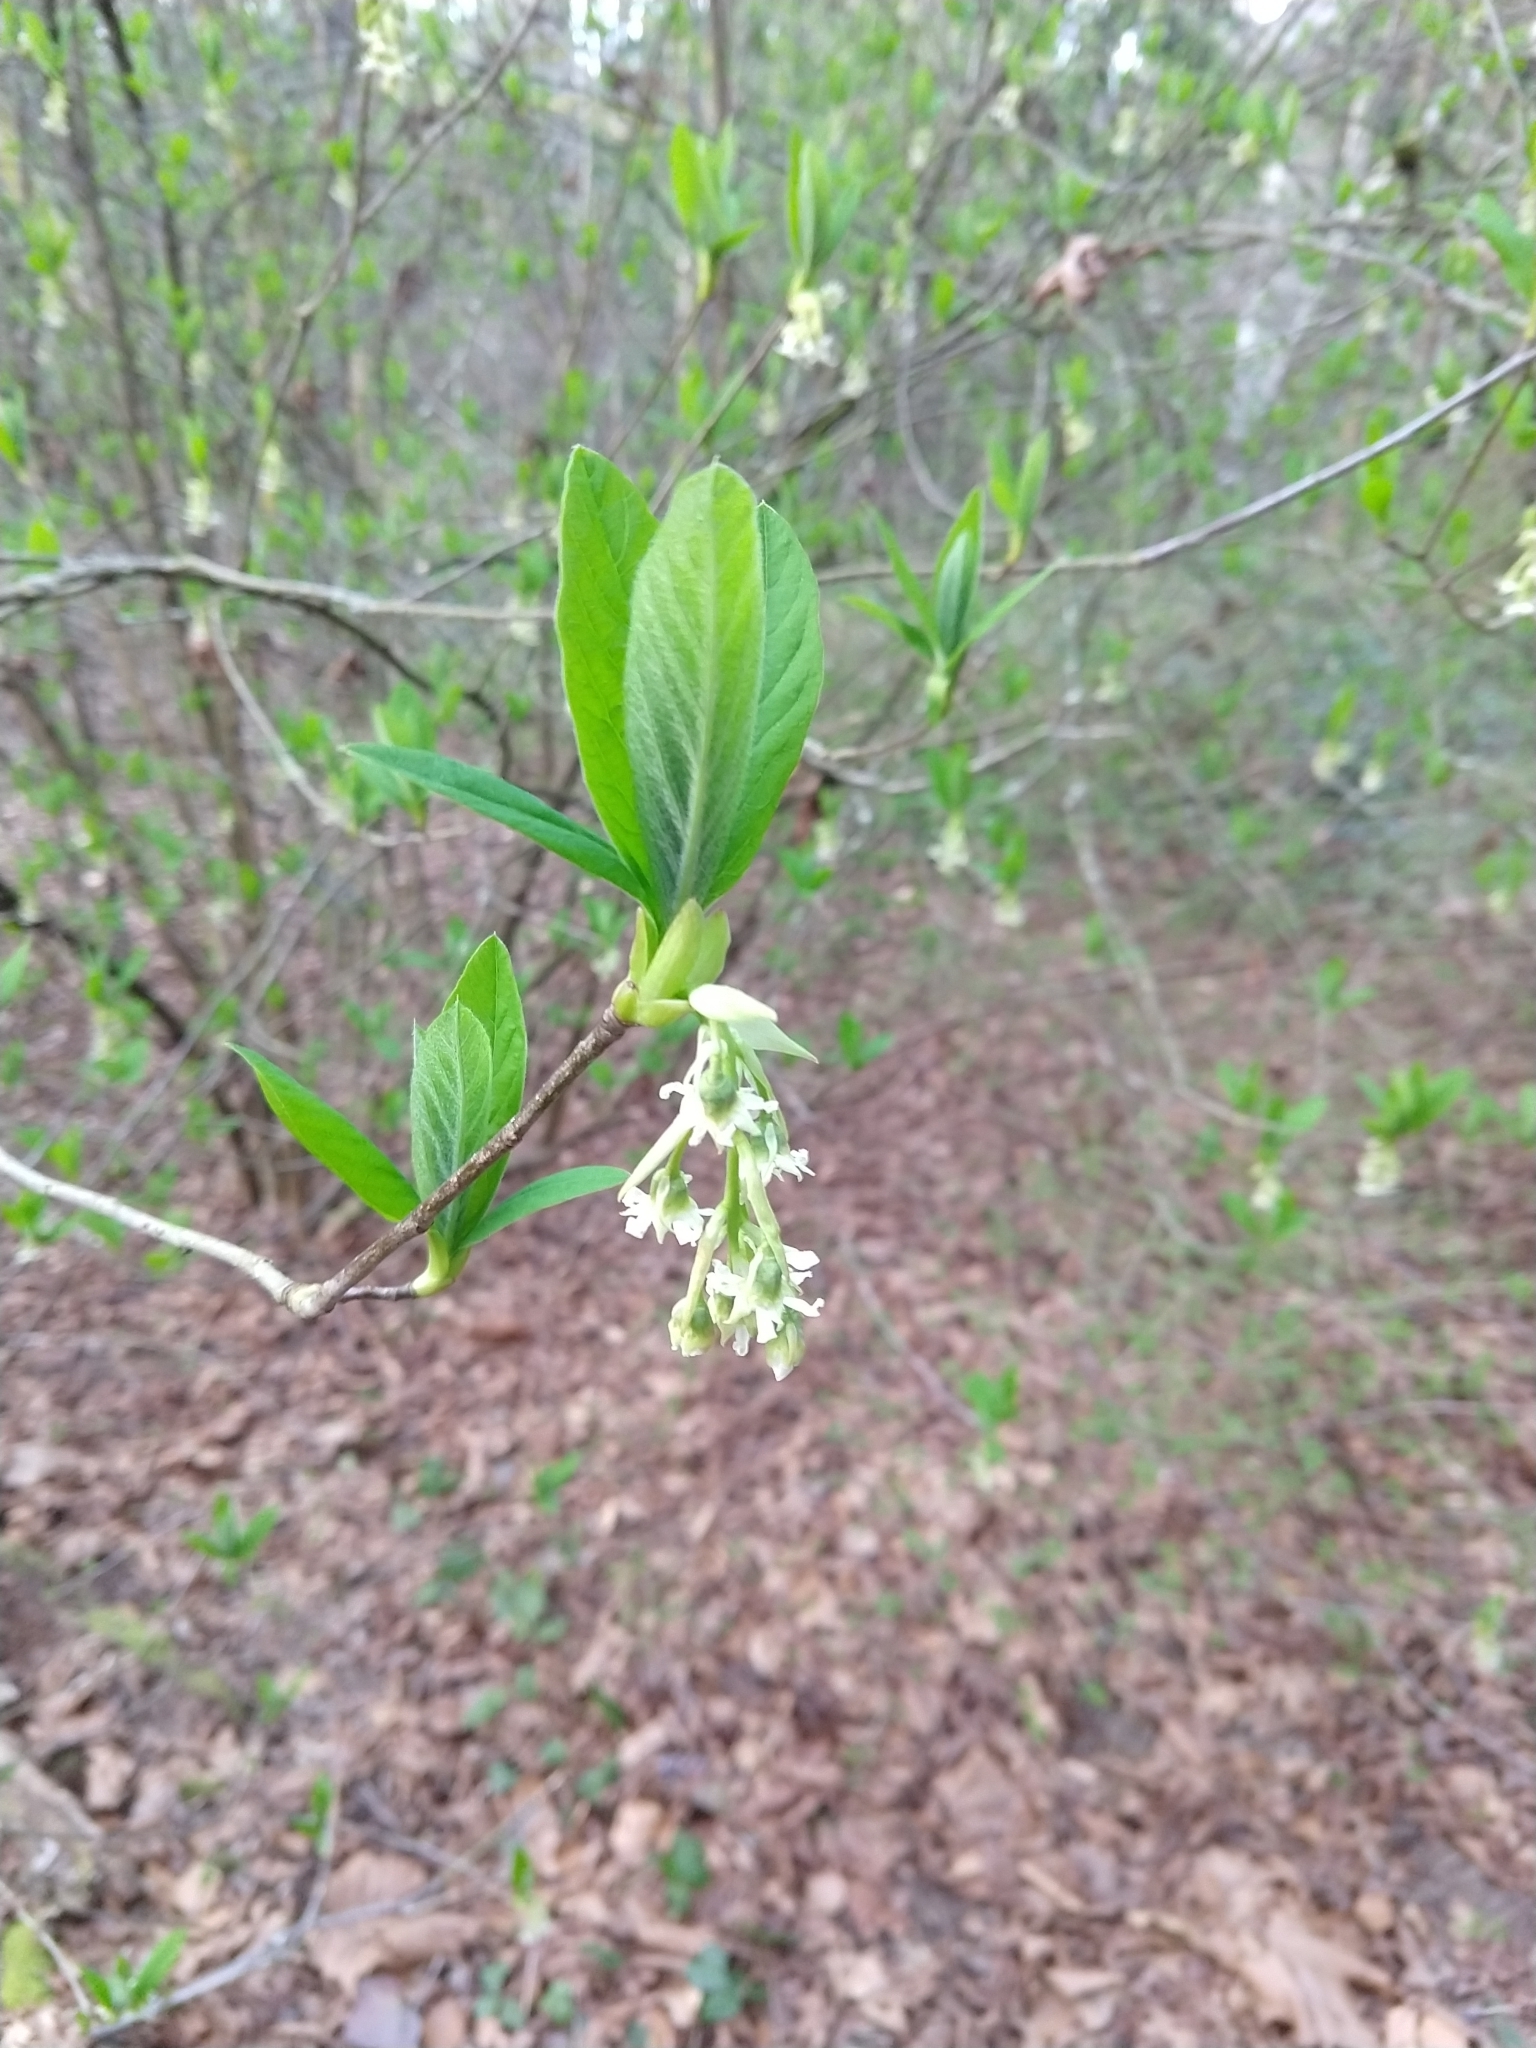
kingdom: Plantae
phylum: Tracheophyta
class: Magnoliopsida
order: Rosales
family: Rosaceae
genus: Oemleria
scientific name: Oemleria cerasiformis
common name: Osoberry
